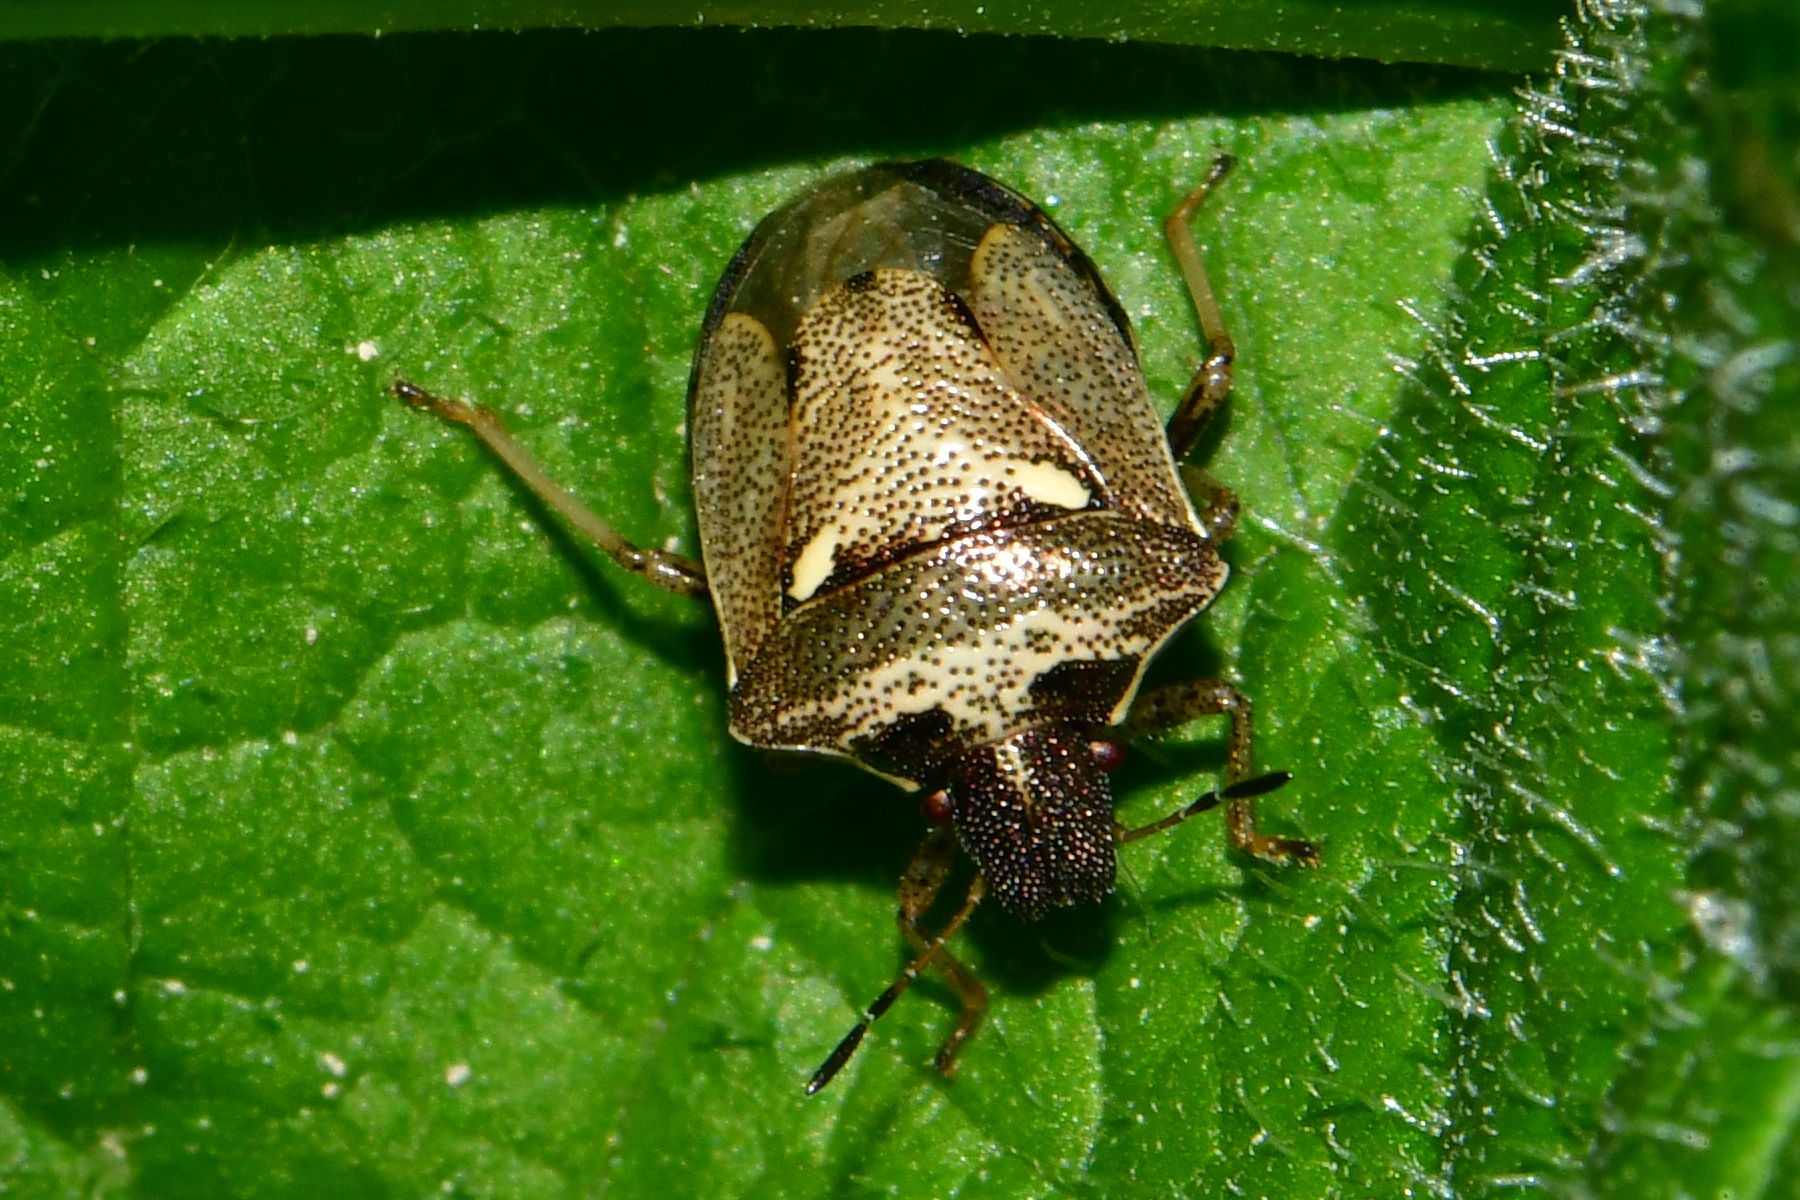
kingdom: Animalia
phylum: Arthropoda
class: Insecta
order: Hemiptera
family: Pentatomidae
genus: Eysarcoris
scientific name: Eysarcoris aeneus
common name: New forest shieldbug
